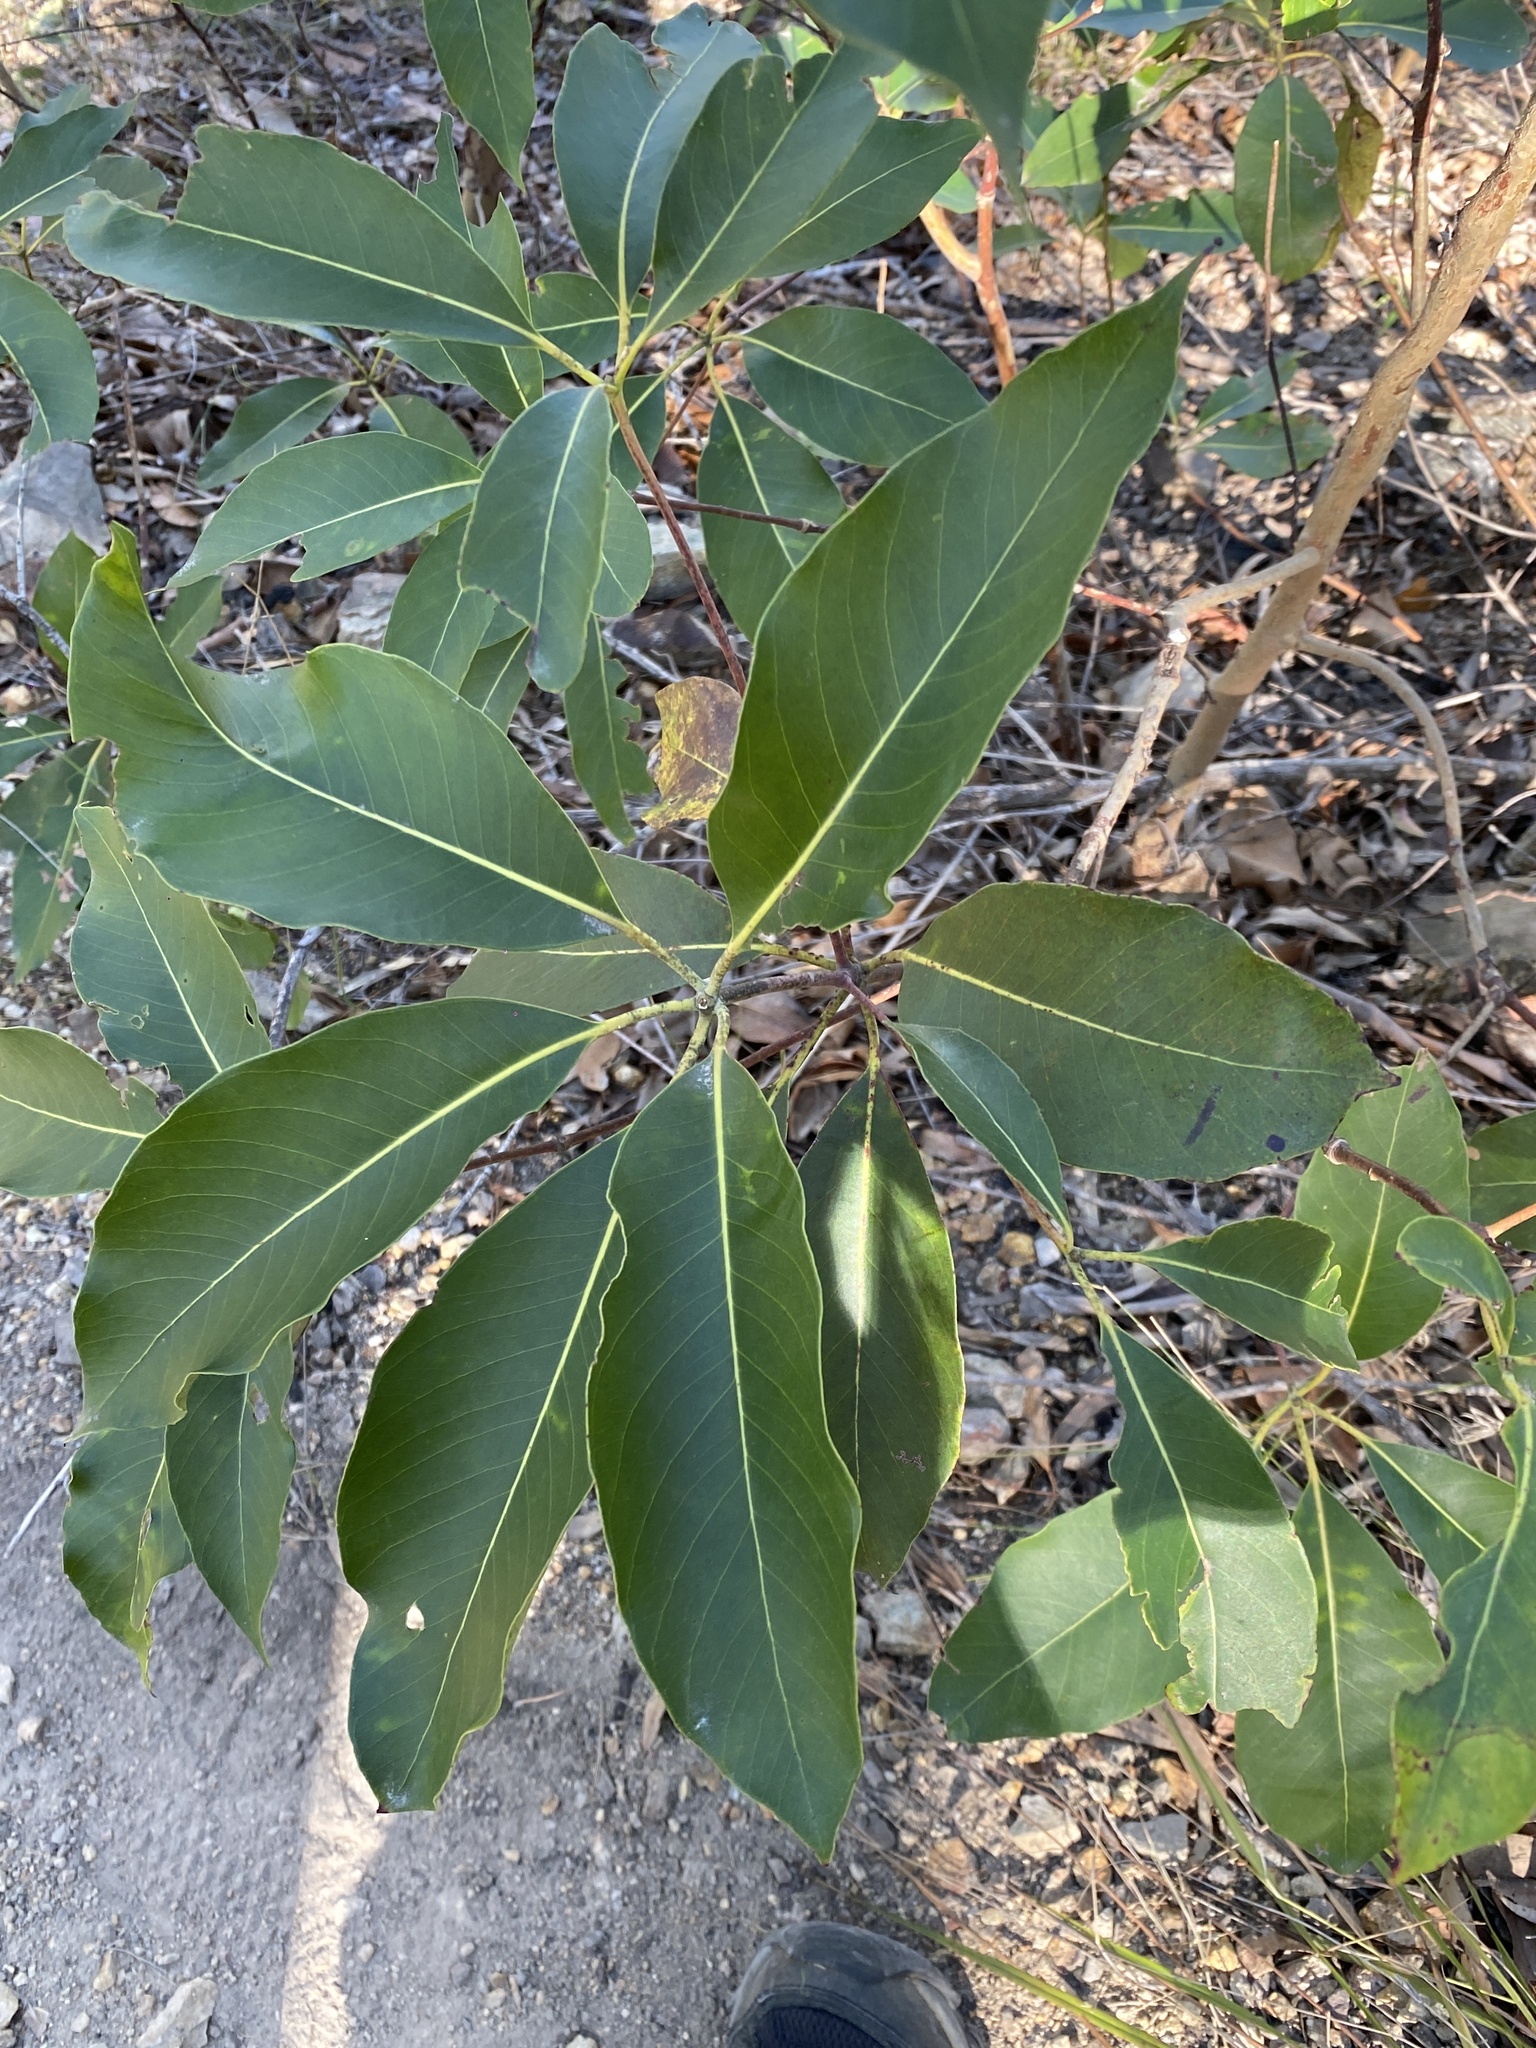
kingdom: Plantae
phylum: Tracheophyta
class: Magnoliopsida
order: Myrtales
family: Myrtaceae
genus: Lophostemon
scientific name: Lophostemon confertus
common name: Brisbane box
